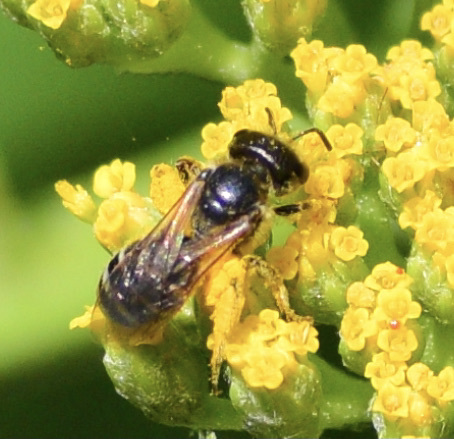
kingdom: Animalia
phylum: Arthropoda
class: Insecta
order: Hymenoptera
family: Halictidae
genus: Halictus
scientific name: Halictus ligatus
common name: Ligated furrow bee
